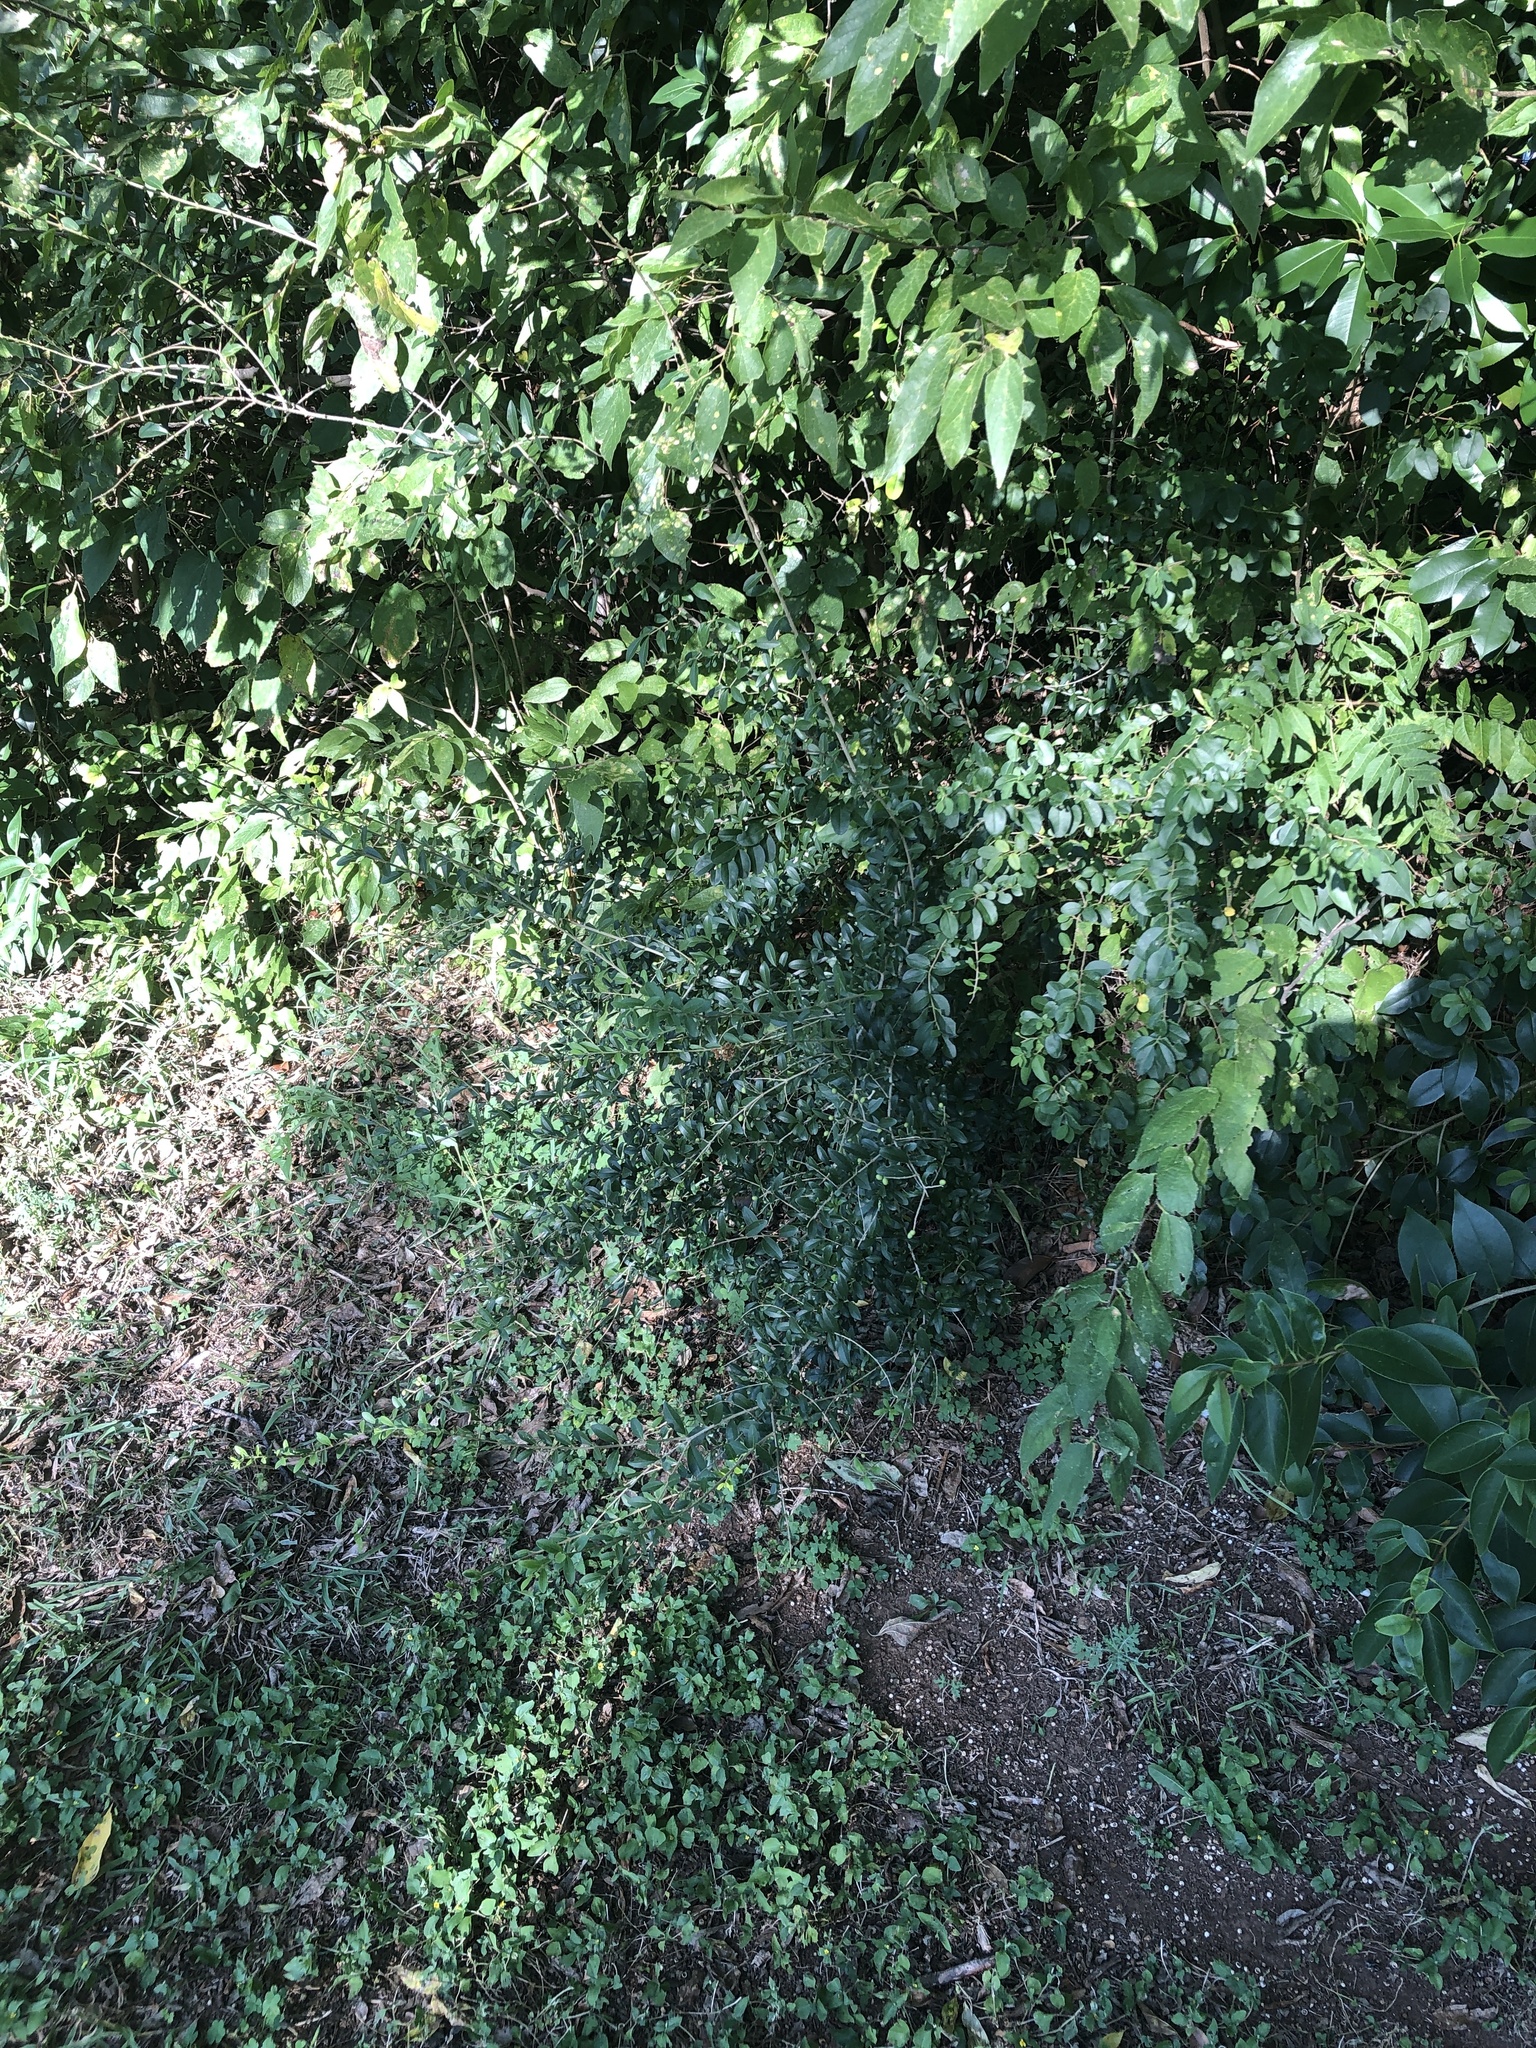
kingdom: Plantae
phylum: Tracheophyta
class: Magnoliopsida
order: Lamiales
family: Oleaceae
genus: Ligustrum
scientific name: Ligustrum quihoui
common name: Waxyleaf privet
